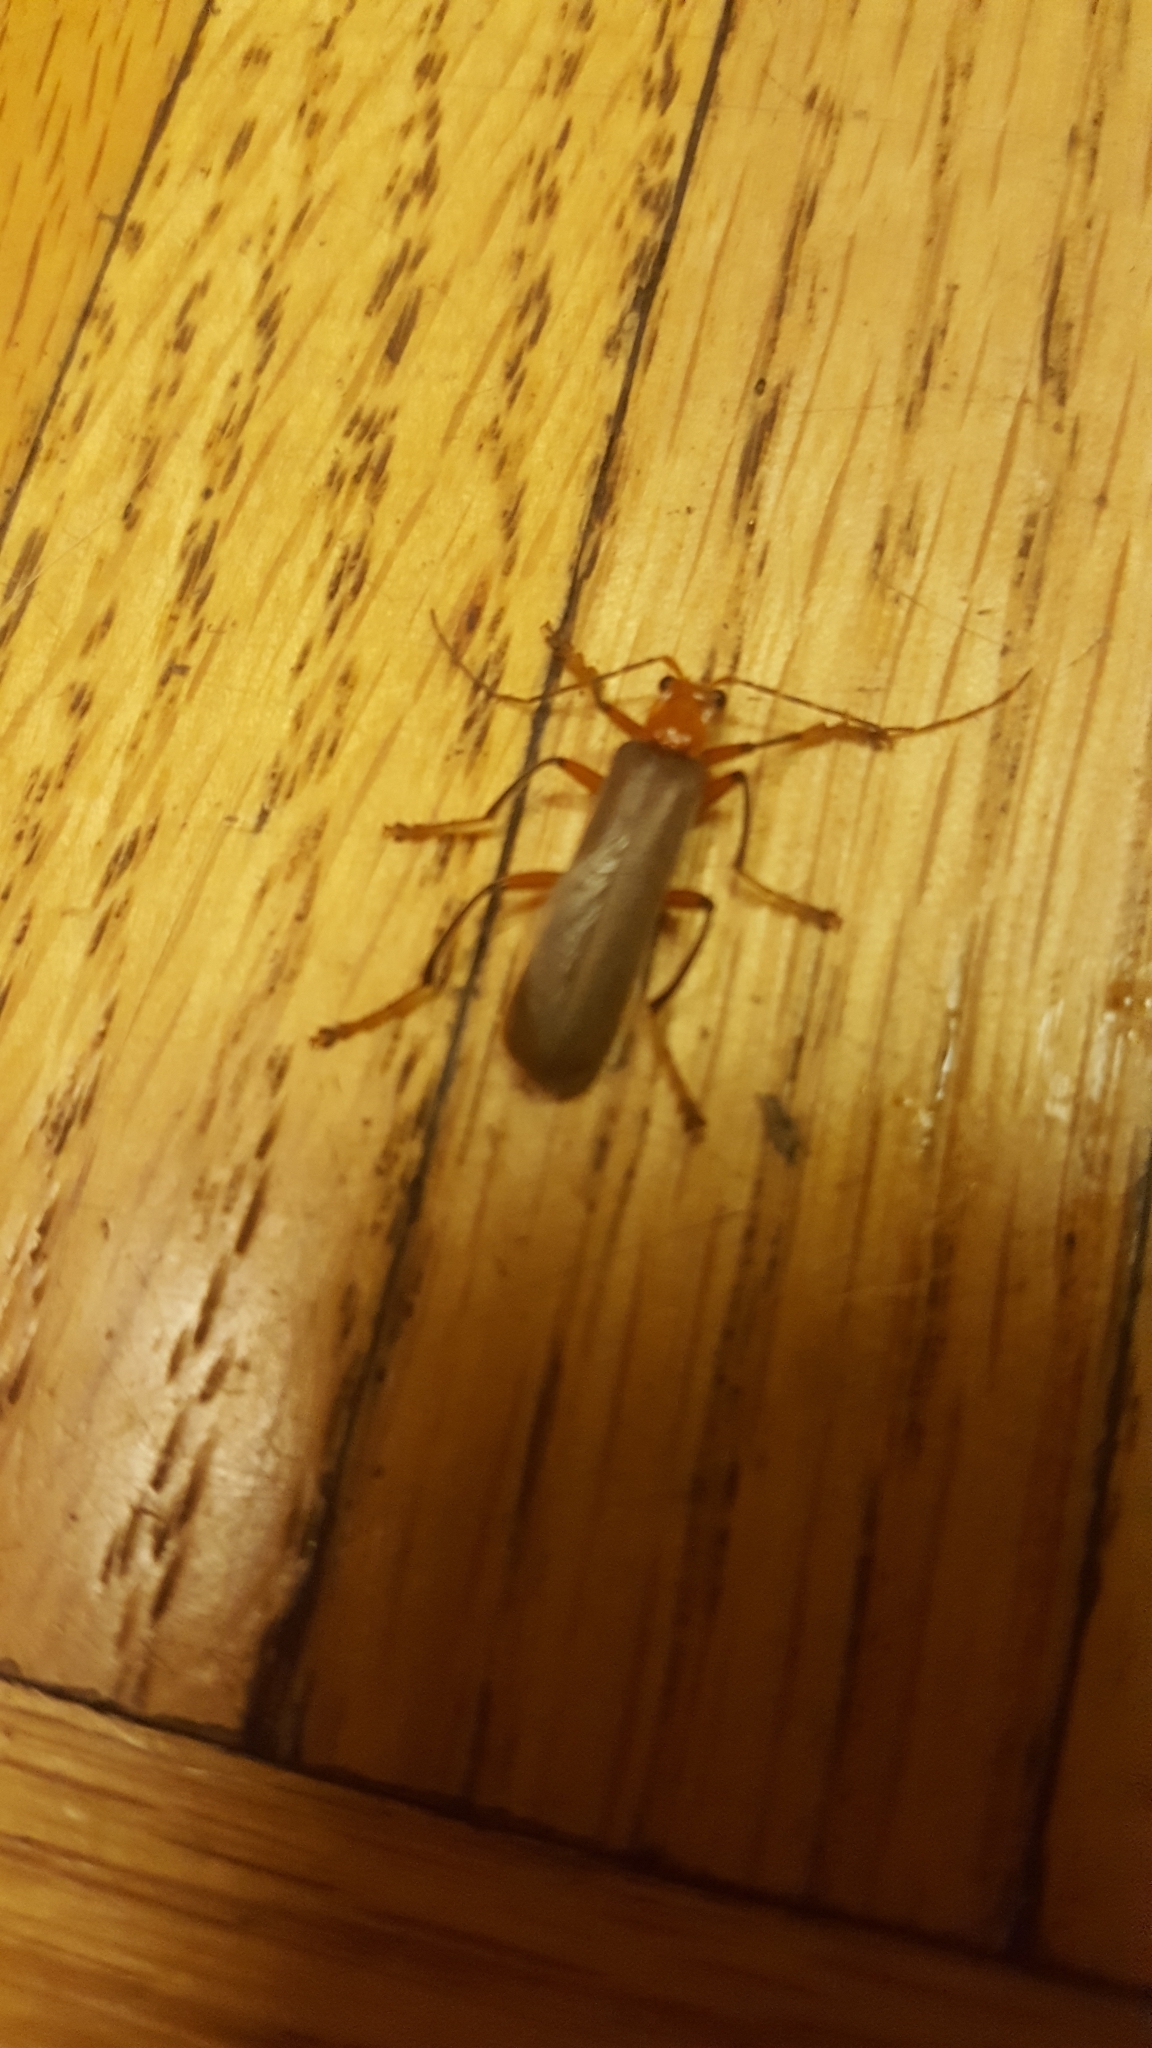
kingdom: Animalia
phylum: Arthropoda
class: Insecta
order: Coleoptera
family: Cantharidae
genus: Pacificanthia
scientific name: Pacificanthia consors
